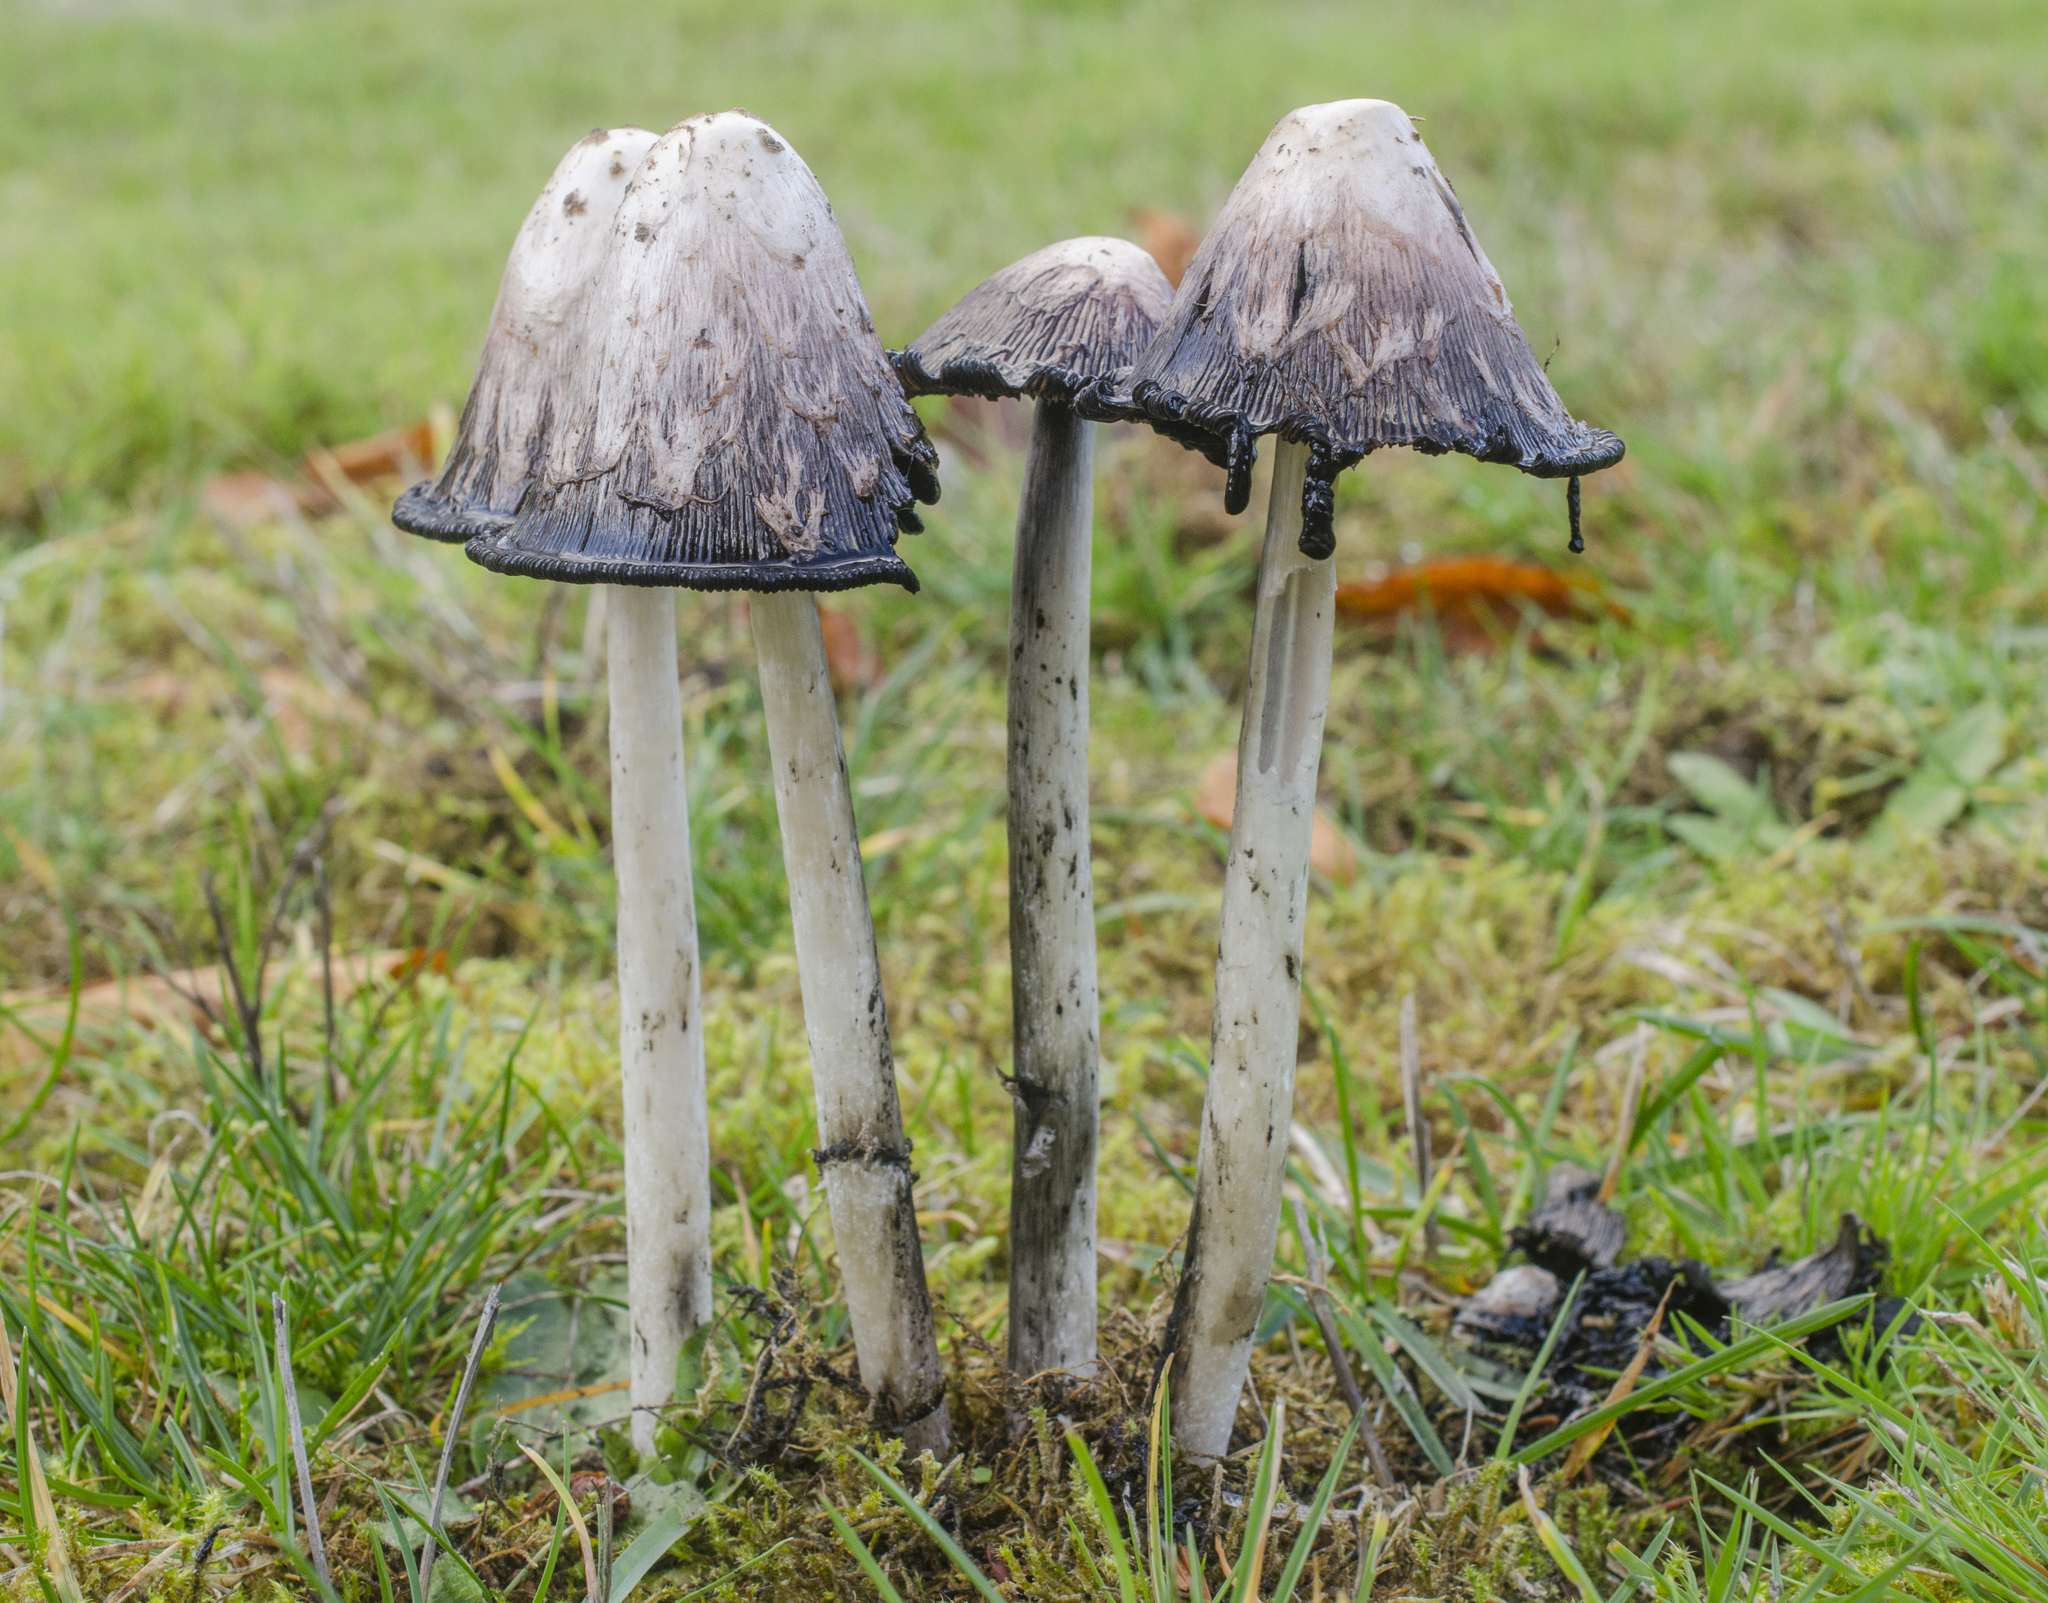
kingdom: Fungi
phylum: Basidiomycota
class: Agaricomycetes
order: Agaricales
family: Agaricaceae
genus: Coprinus
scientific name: Coprinus comatus
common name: Lawyer's wig
